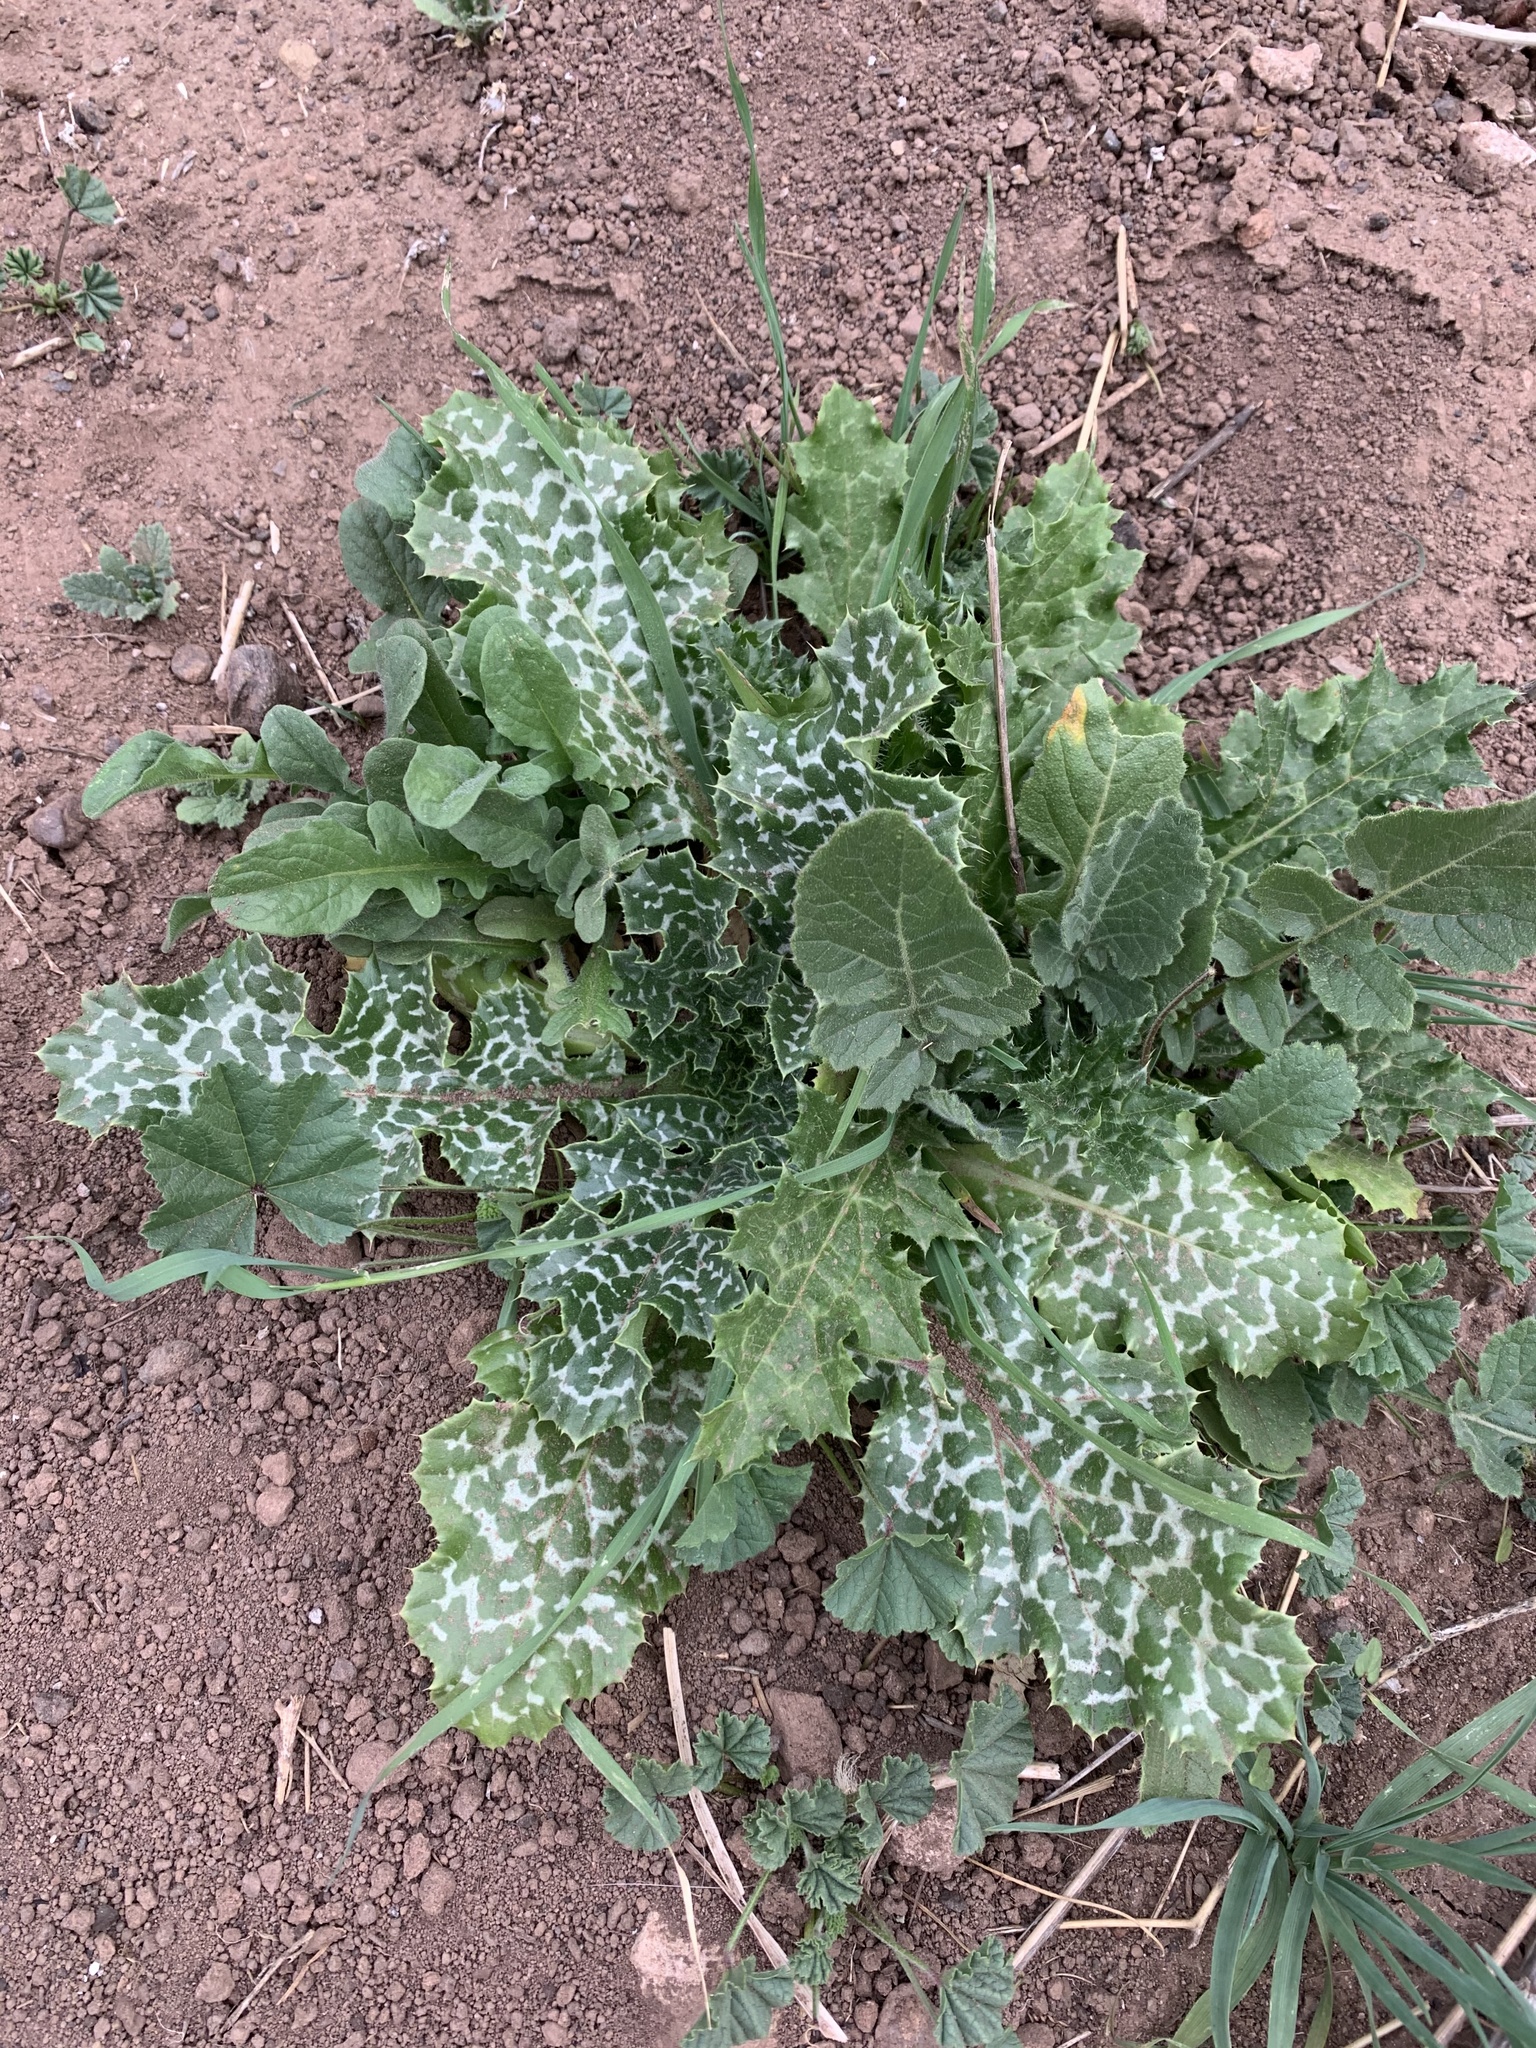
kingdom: Plantae
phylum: Tracheophyta
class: Magnoliopsida
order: Asterales
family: Asteraceae
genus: Silybum
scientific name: Silybum marianum
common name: Milk thistle
